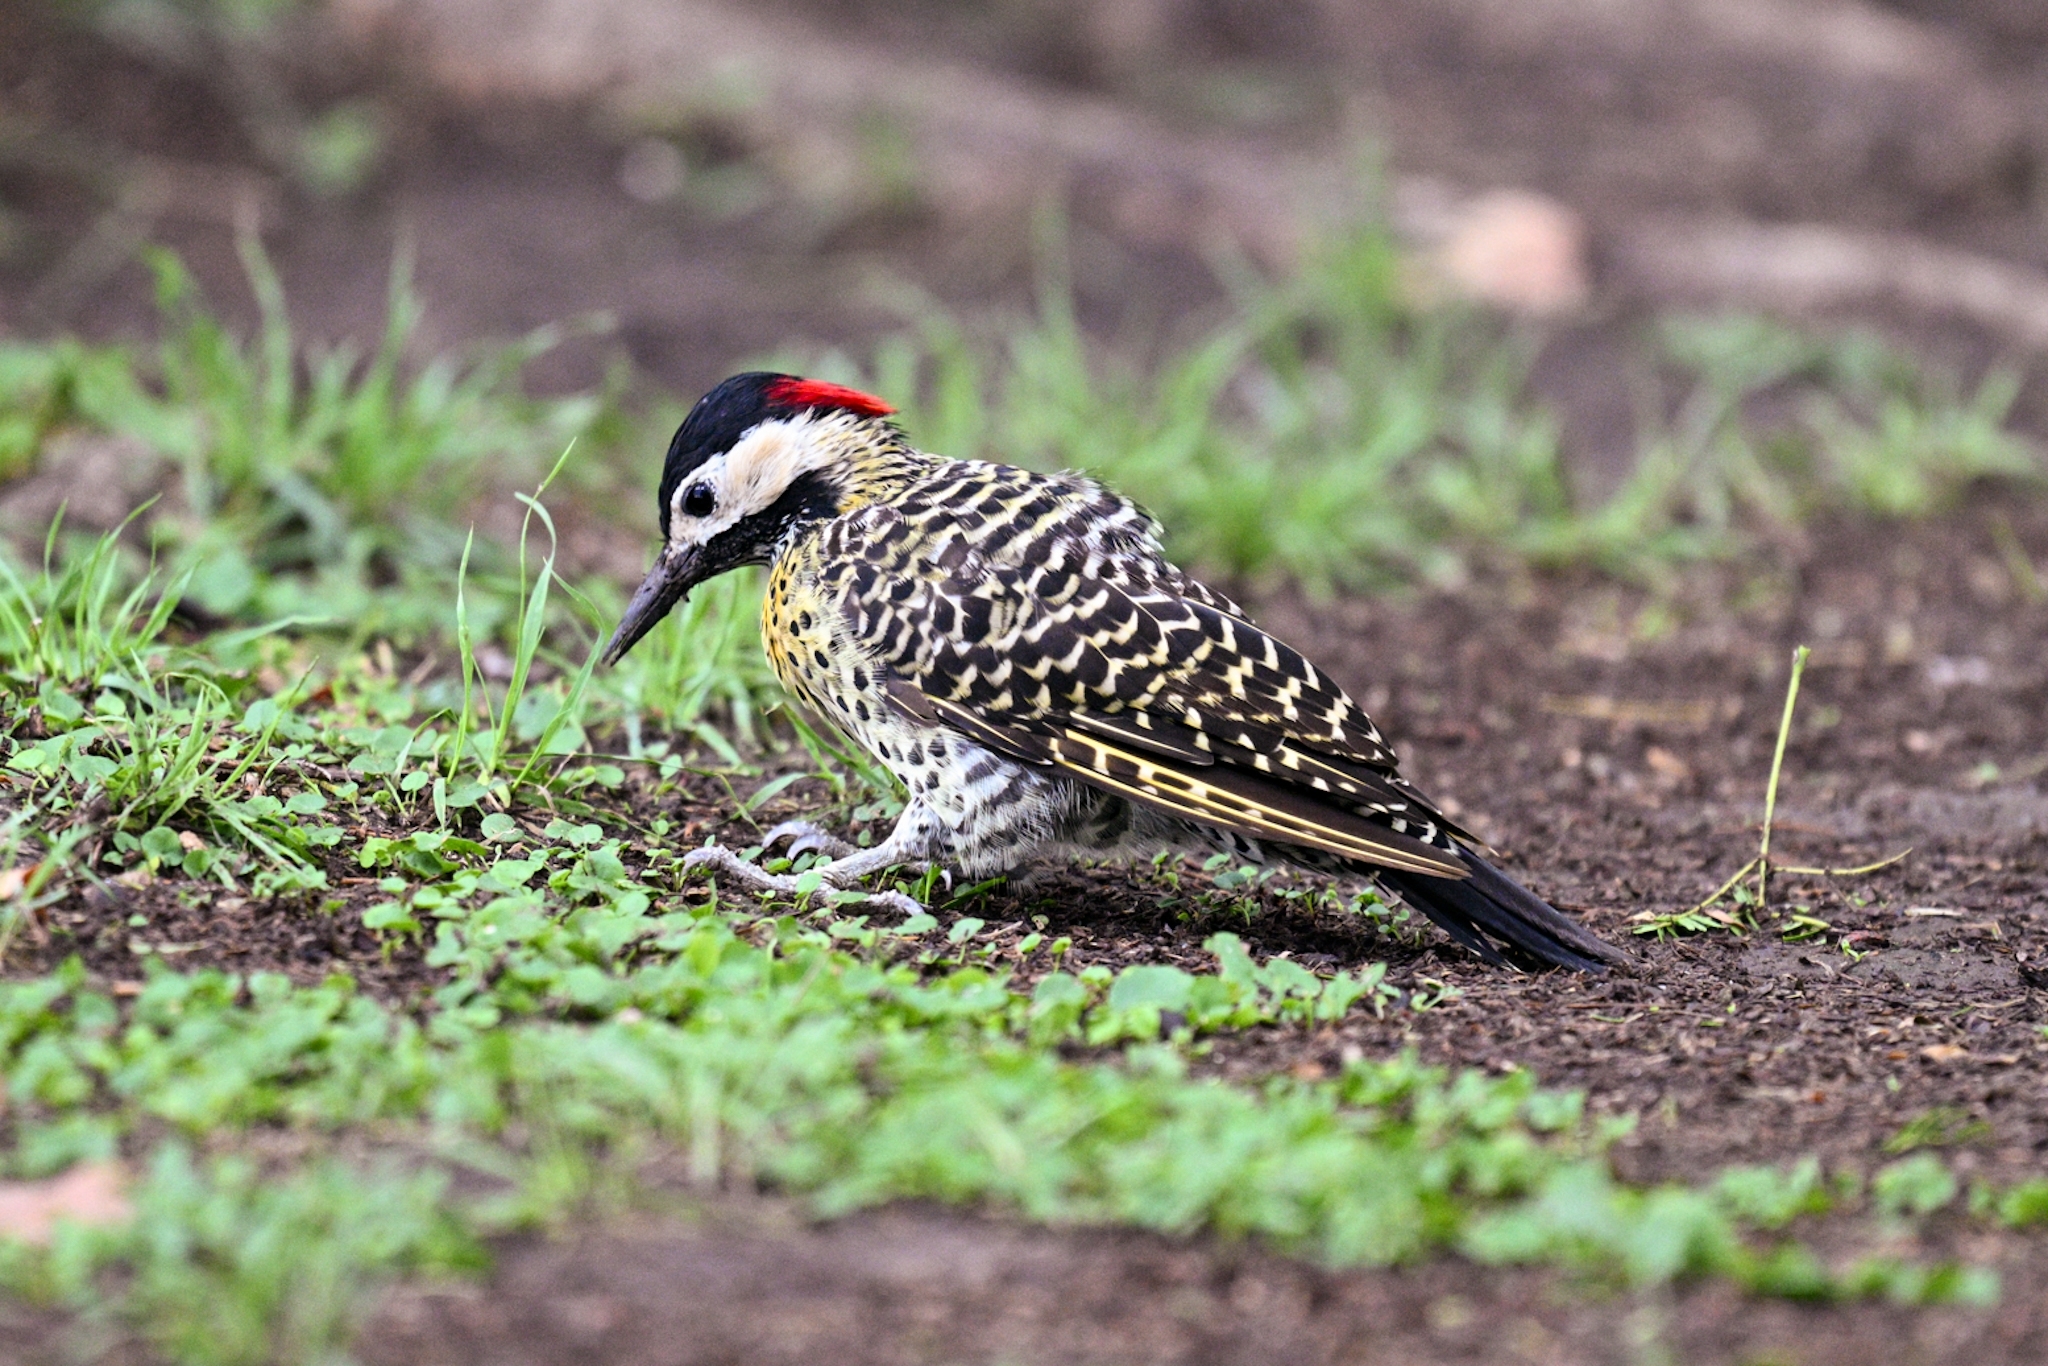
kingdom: Animalia
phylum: Chordata
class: Aves
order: Piciformes
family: Picidae
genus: Colaptes
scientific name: Colaptes melanochloros
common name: Green-barred woodpecker
